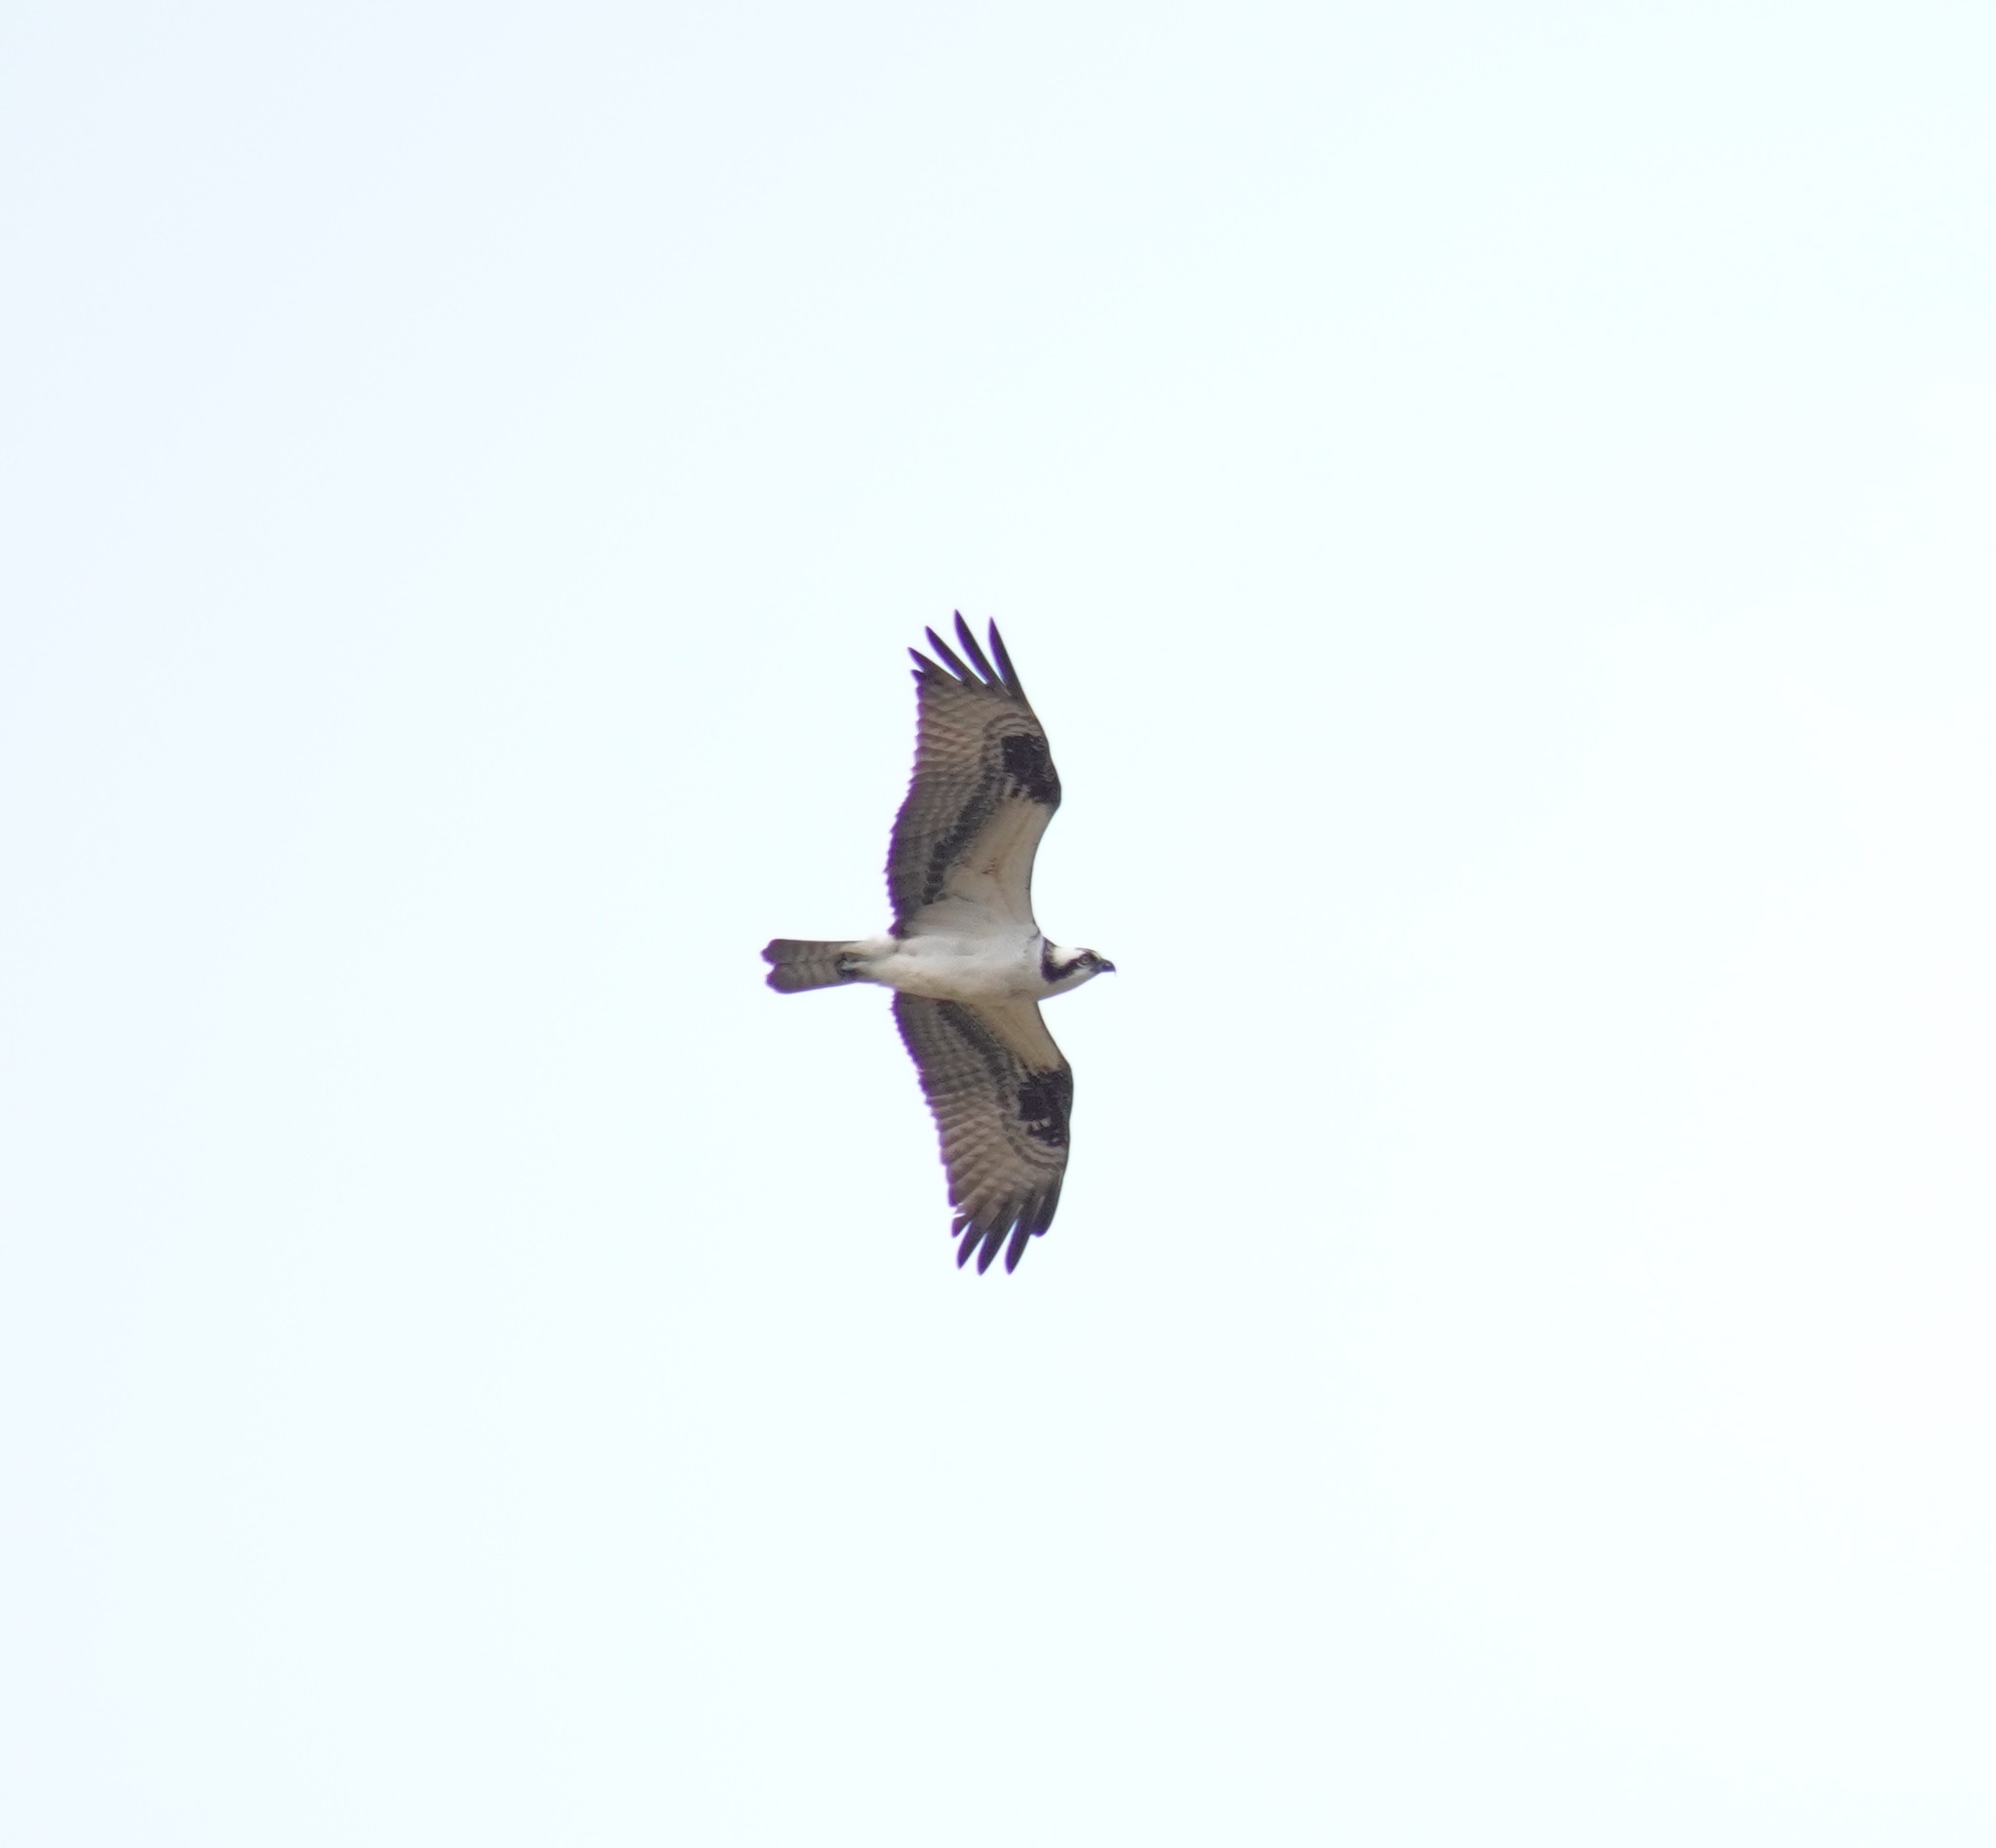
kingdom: Animalia
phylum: Chordata
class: Aves
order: Accipitriformes
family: Pandionidae
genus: Pandion
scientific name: Pandion haliaetus
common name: Osprey
